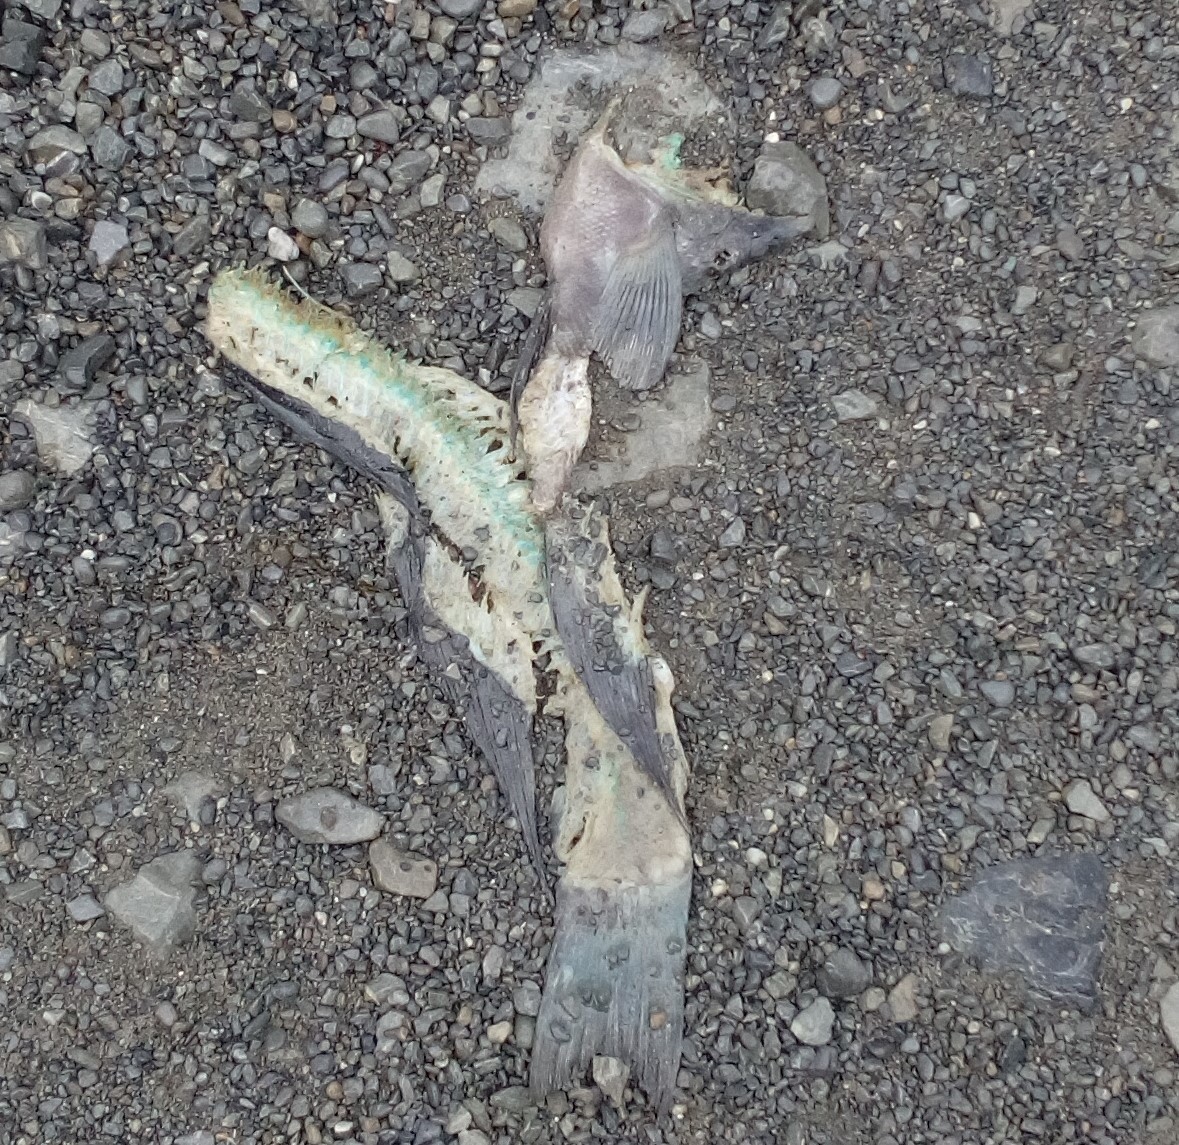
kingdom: Animalia
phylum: Chordata
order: Perciformes
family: Odacidae
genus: Odax
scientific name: Odax pullus
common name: Butterfish
